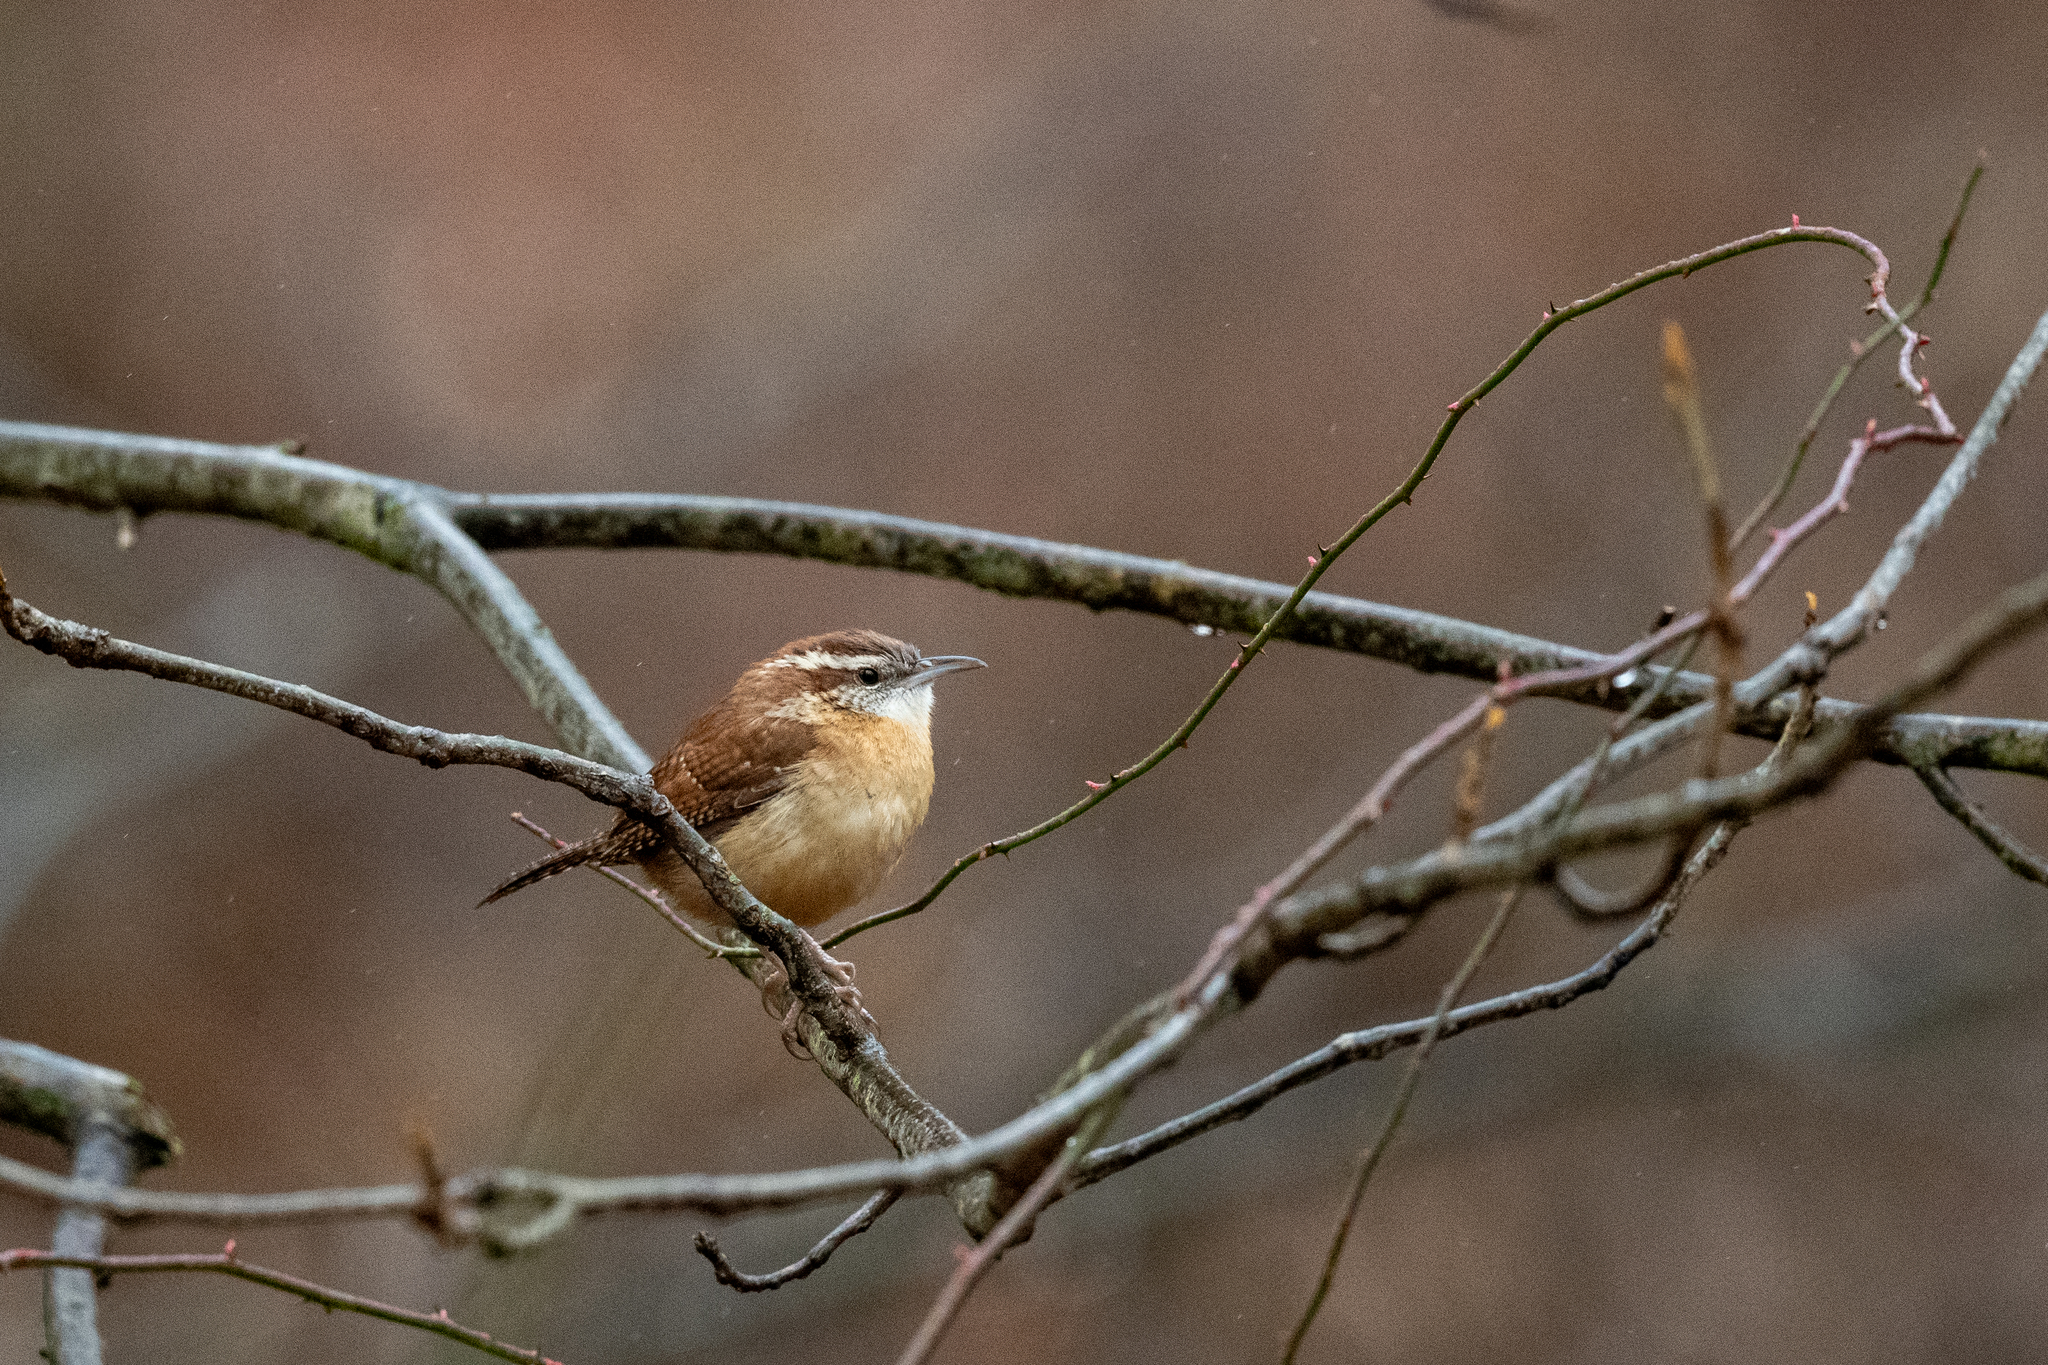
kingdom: Animalia
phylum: Chordata
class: Aves
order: Passeriformes
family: Troglodytidae
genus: Thryothorus
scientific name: Thryothorus ludovicianus
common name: Carolina wren
